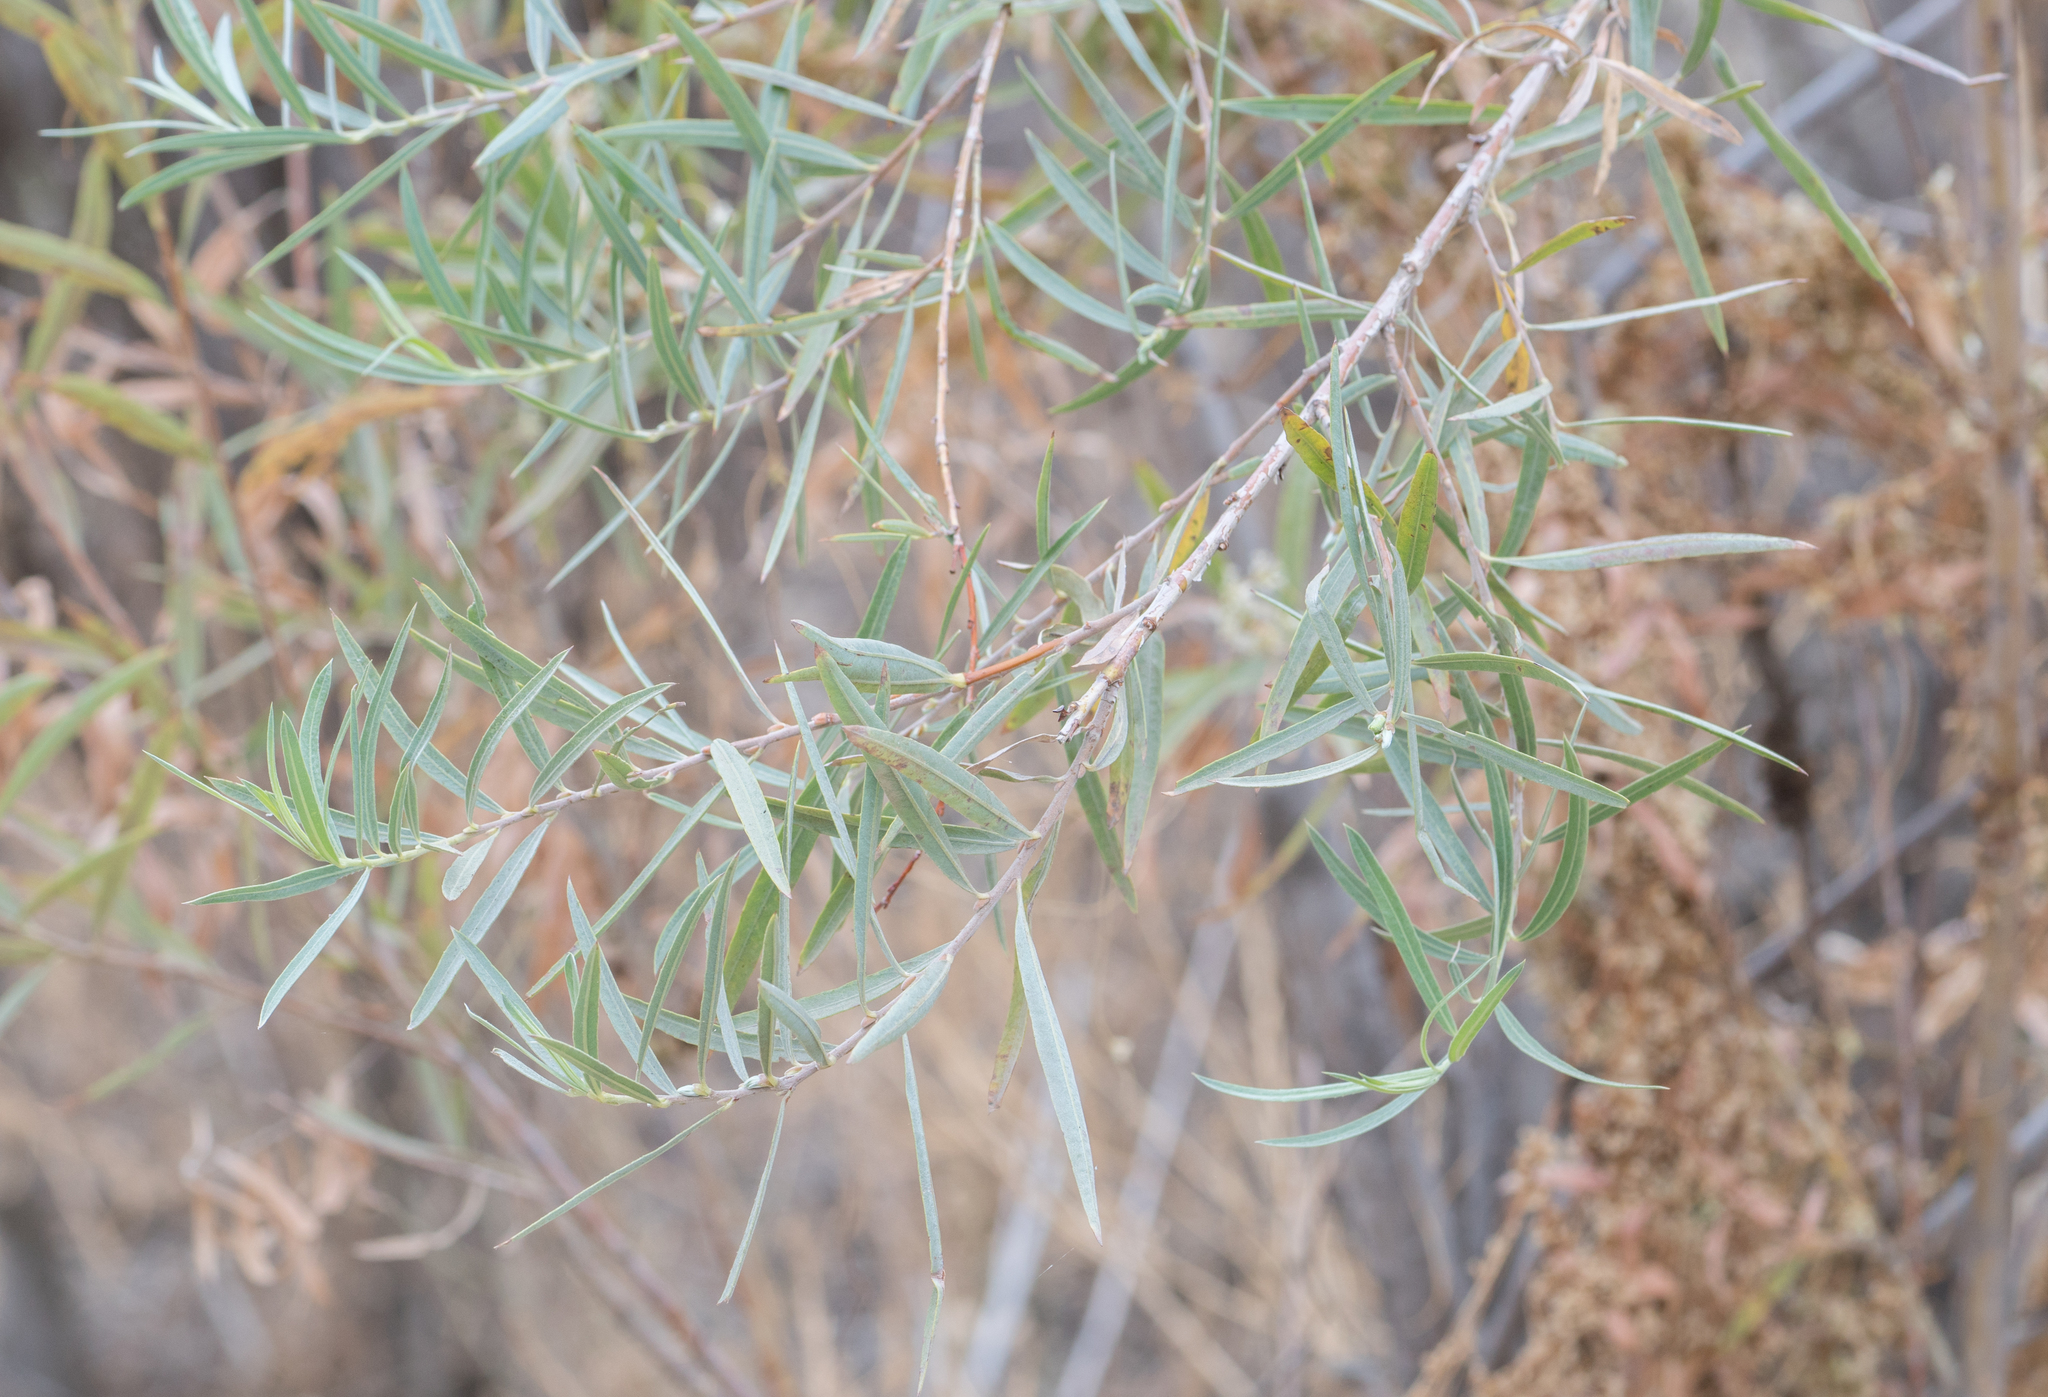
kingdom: Plantae
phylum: Tracheophyta
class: Magnoliopsida
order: Malpighiales
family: Salicaceae
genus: Salix
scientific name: Salix exigua
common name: Coyote willow
